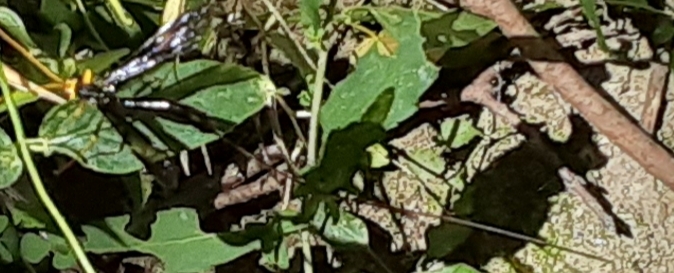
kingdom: Animalia
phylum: Arthropoda
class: Insecta
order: Hymenoptera
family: Ichneumonidae
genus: Megarhyssa
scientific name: Megarhyssa atrata
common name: Black giant ichneumonid wasp
